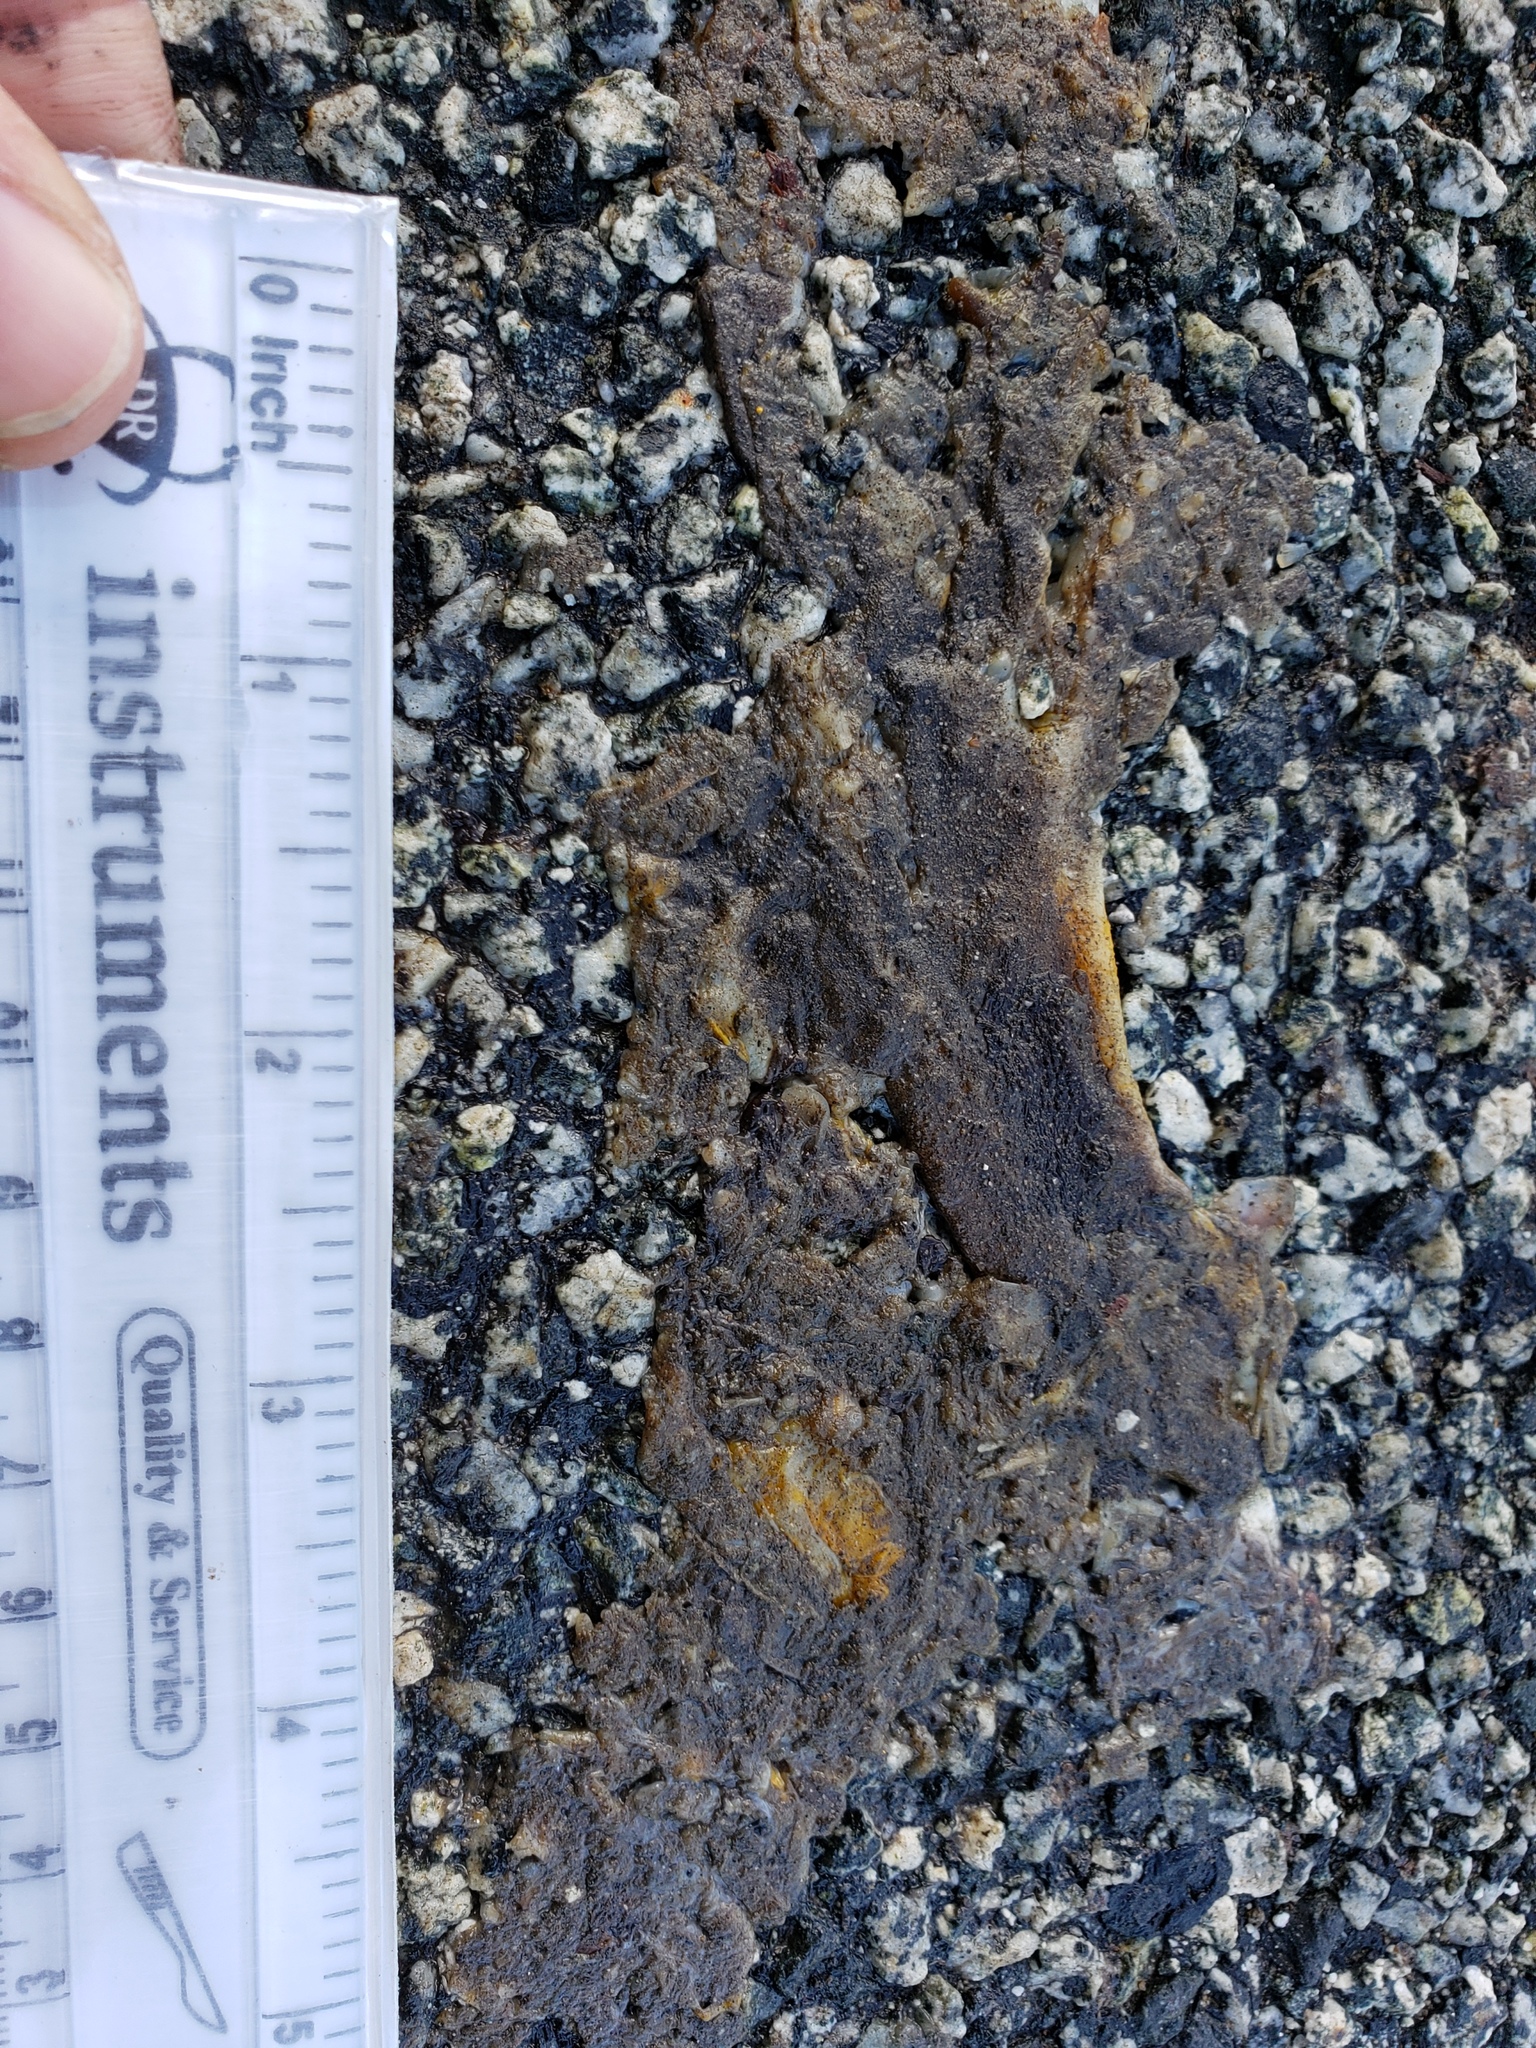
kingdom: Animalia
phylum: Chordata
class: Amphibia
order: Caudata
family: Salamandridae
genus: Taricha
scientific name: Taricha
